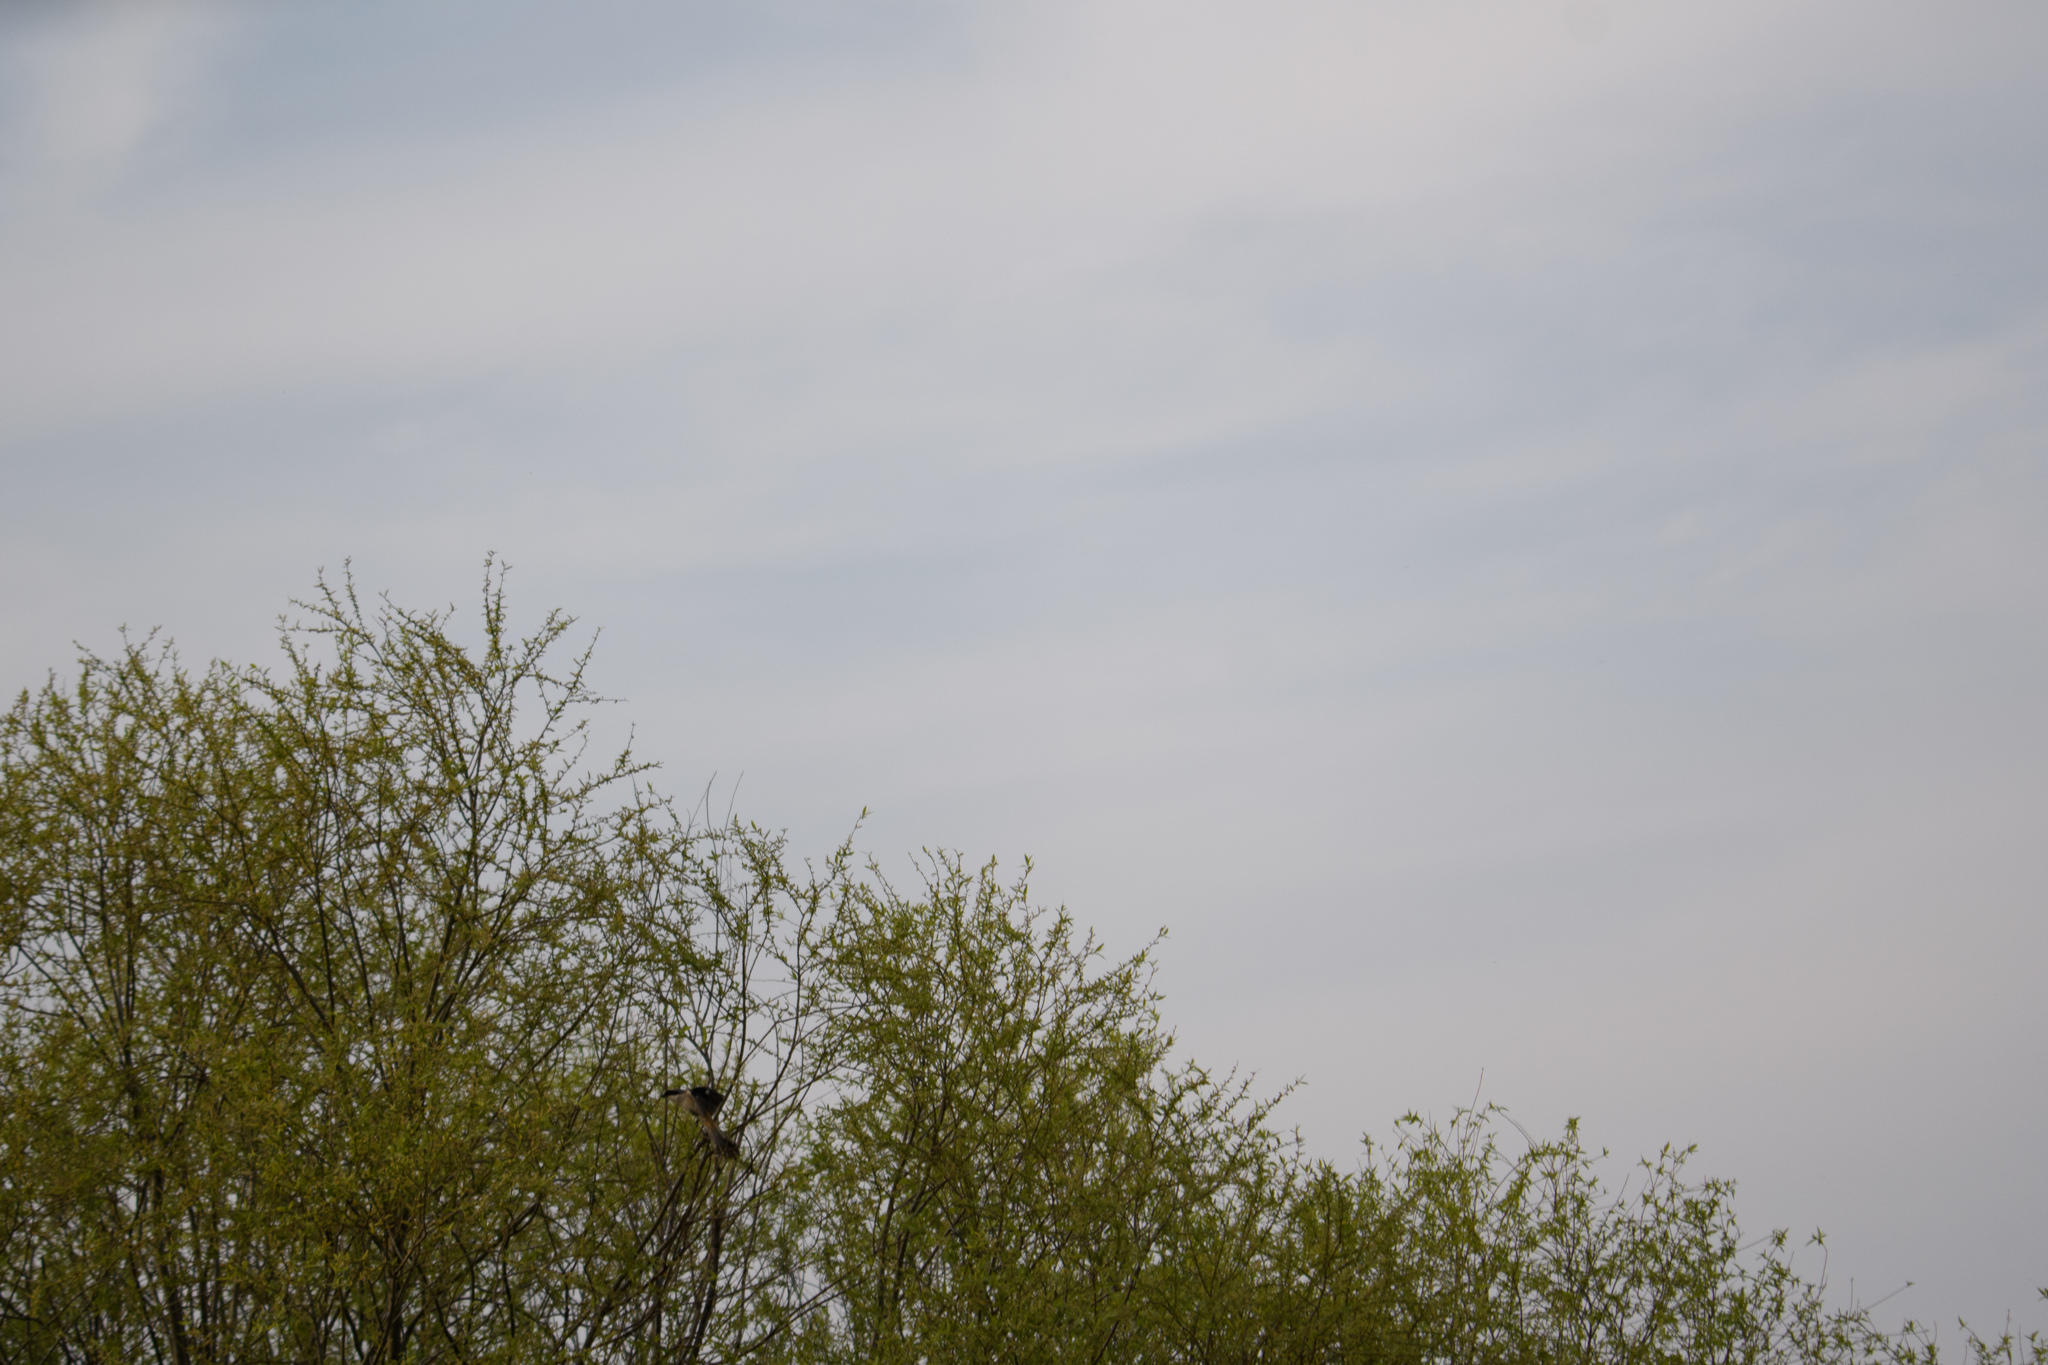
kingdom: Animalia
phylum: Chordata
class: Aves
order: Passeriformes
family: Laniidae
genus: Lanius
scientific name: Lanius schach
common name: Long-tailed shrike
